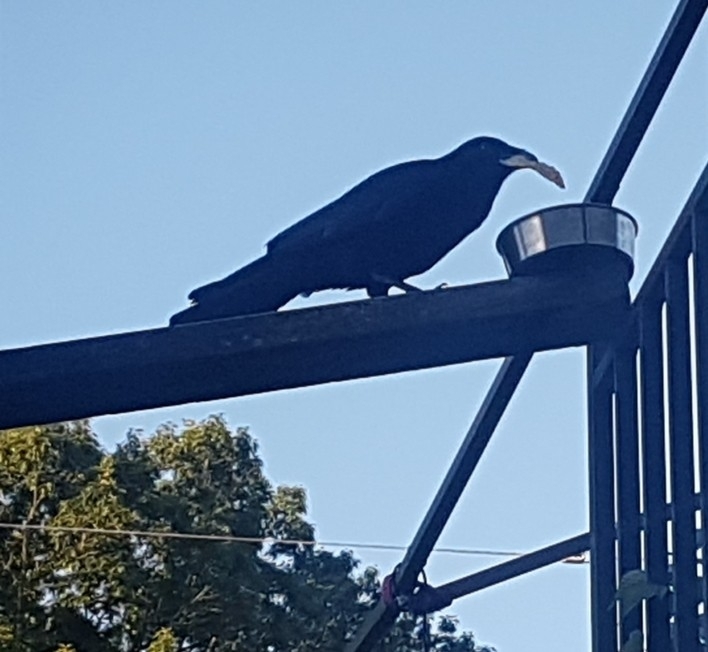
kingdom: Animalia
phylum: Chordata
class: Aves
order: Passeriformes
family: Corvidae
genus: Corvus
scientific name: Corvus brachyrhynchos
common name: American crow
